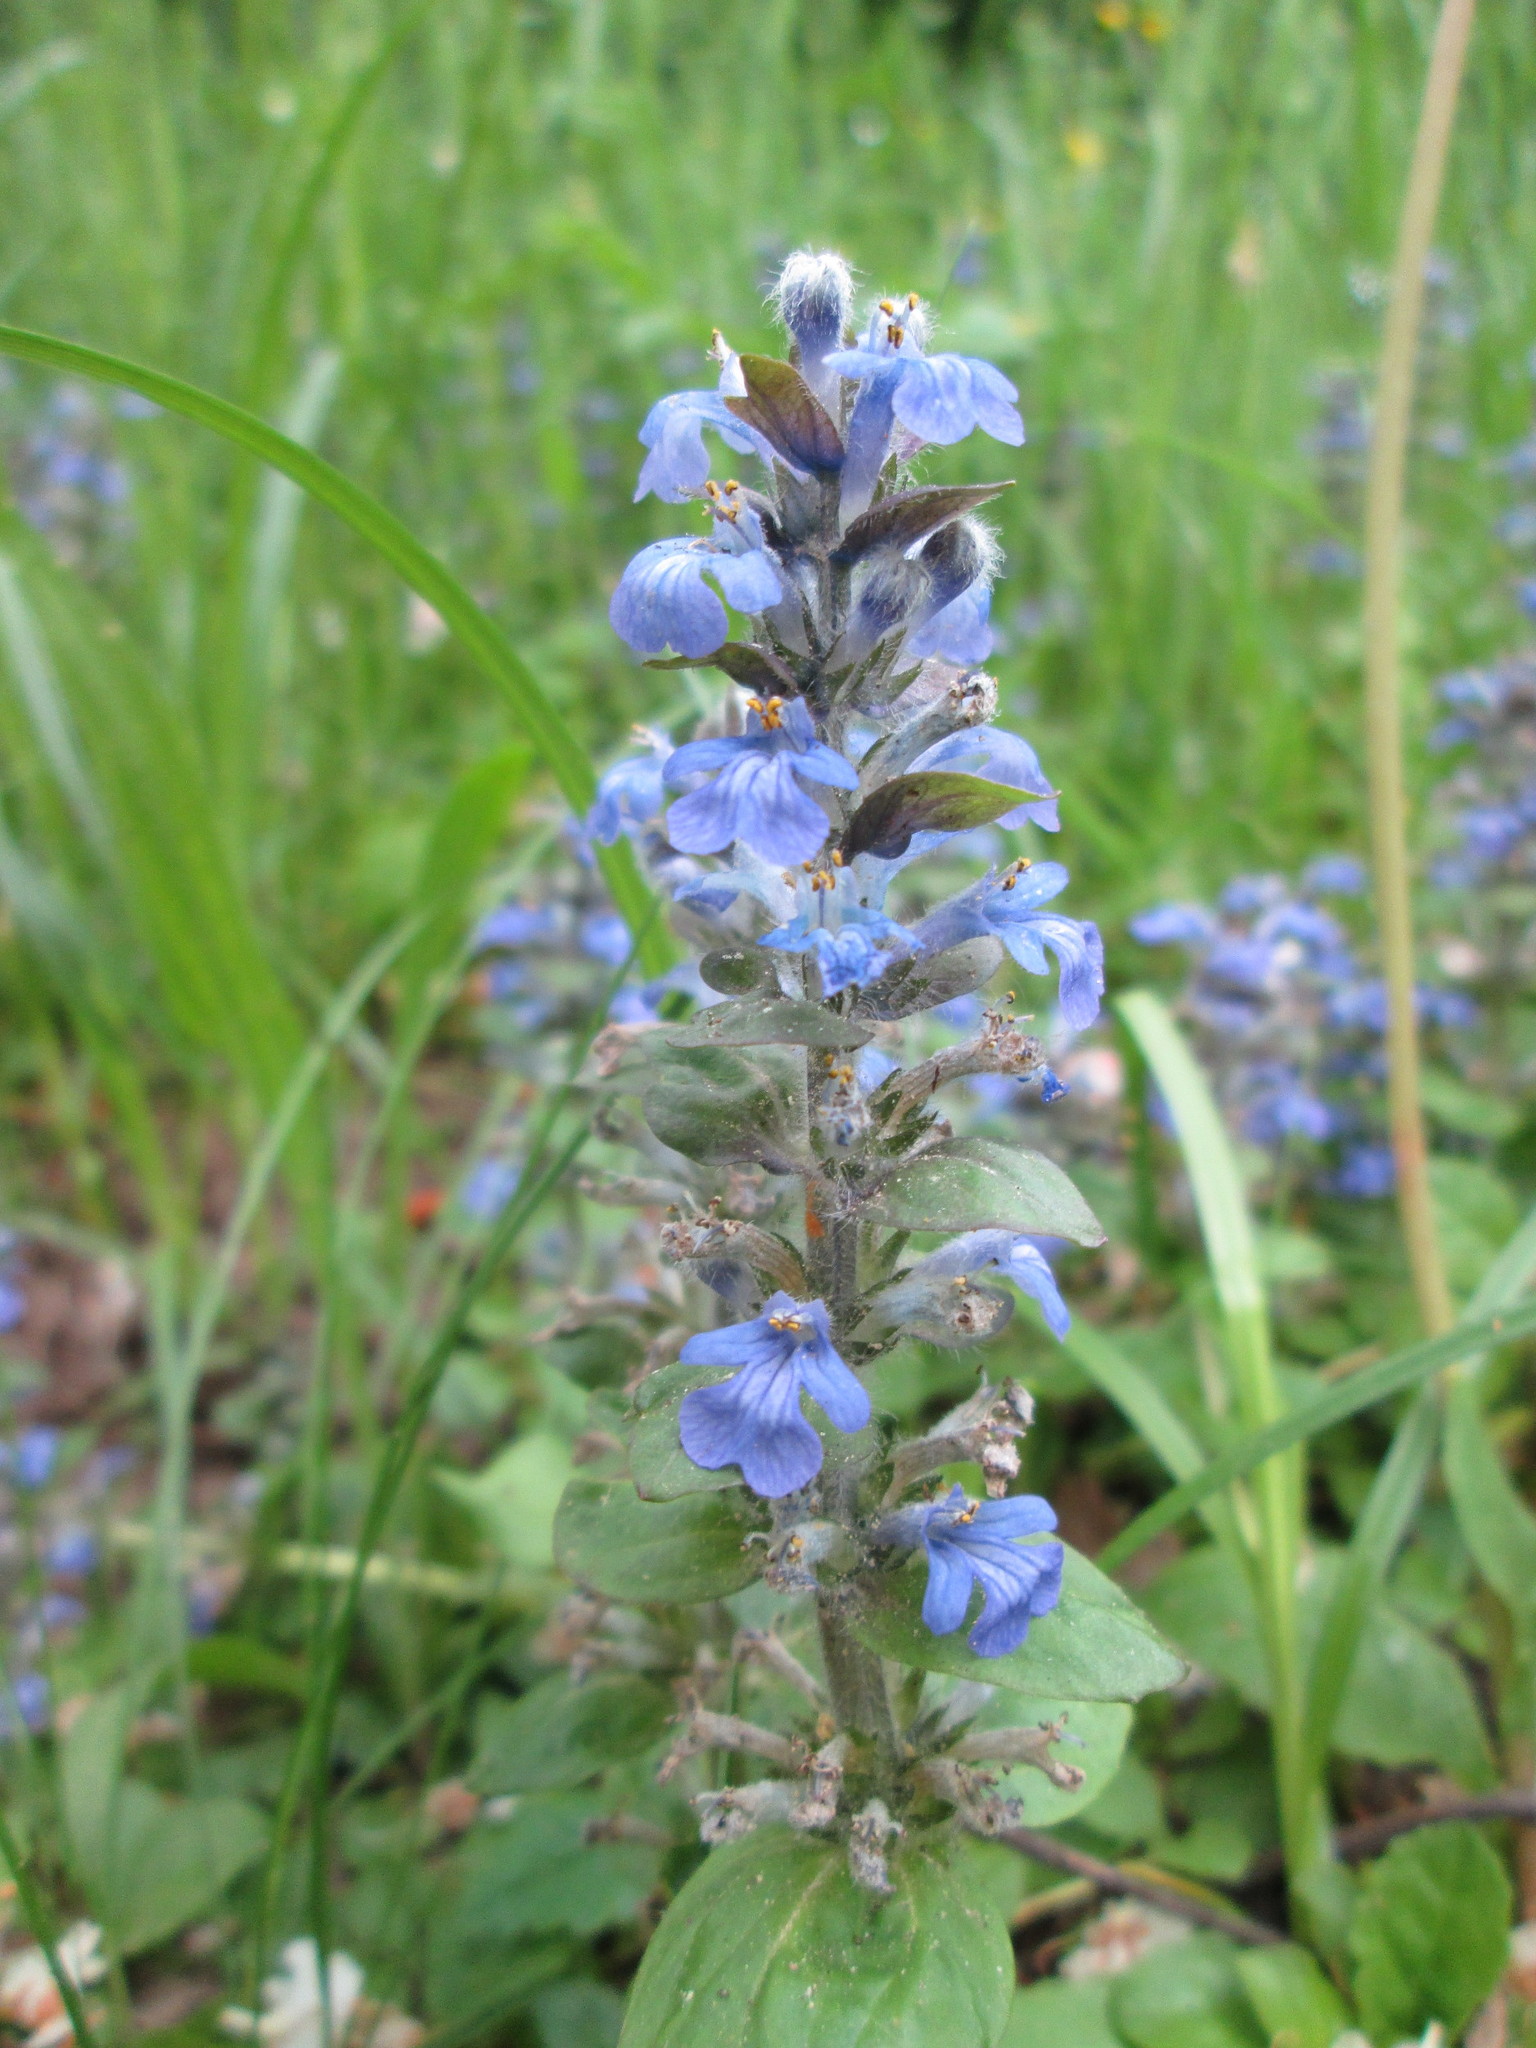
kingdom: Plantae
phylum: Tracheophyta
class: Magnoliopsida
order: Lamiales
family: Lamiaceae
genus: Ajuga
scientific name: Ajuga reptans
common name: Bugle
